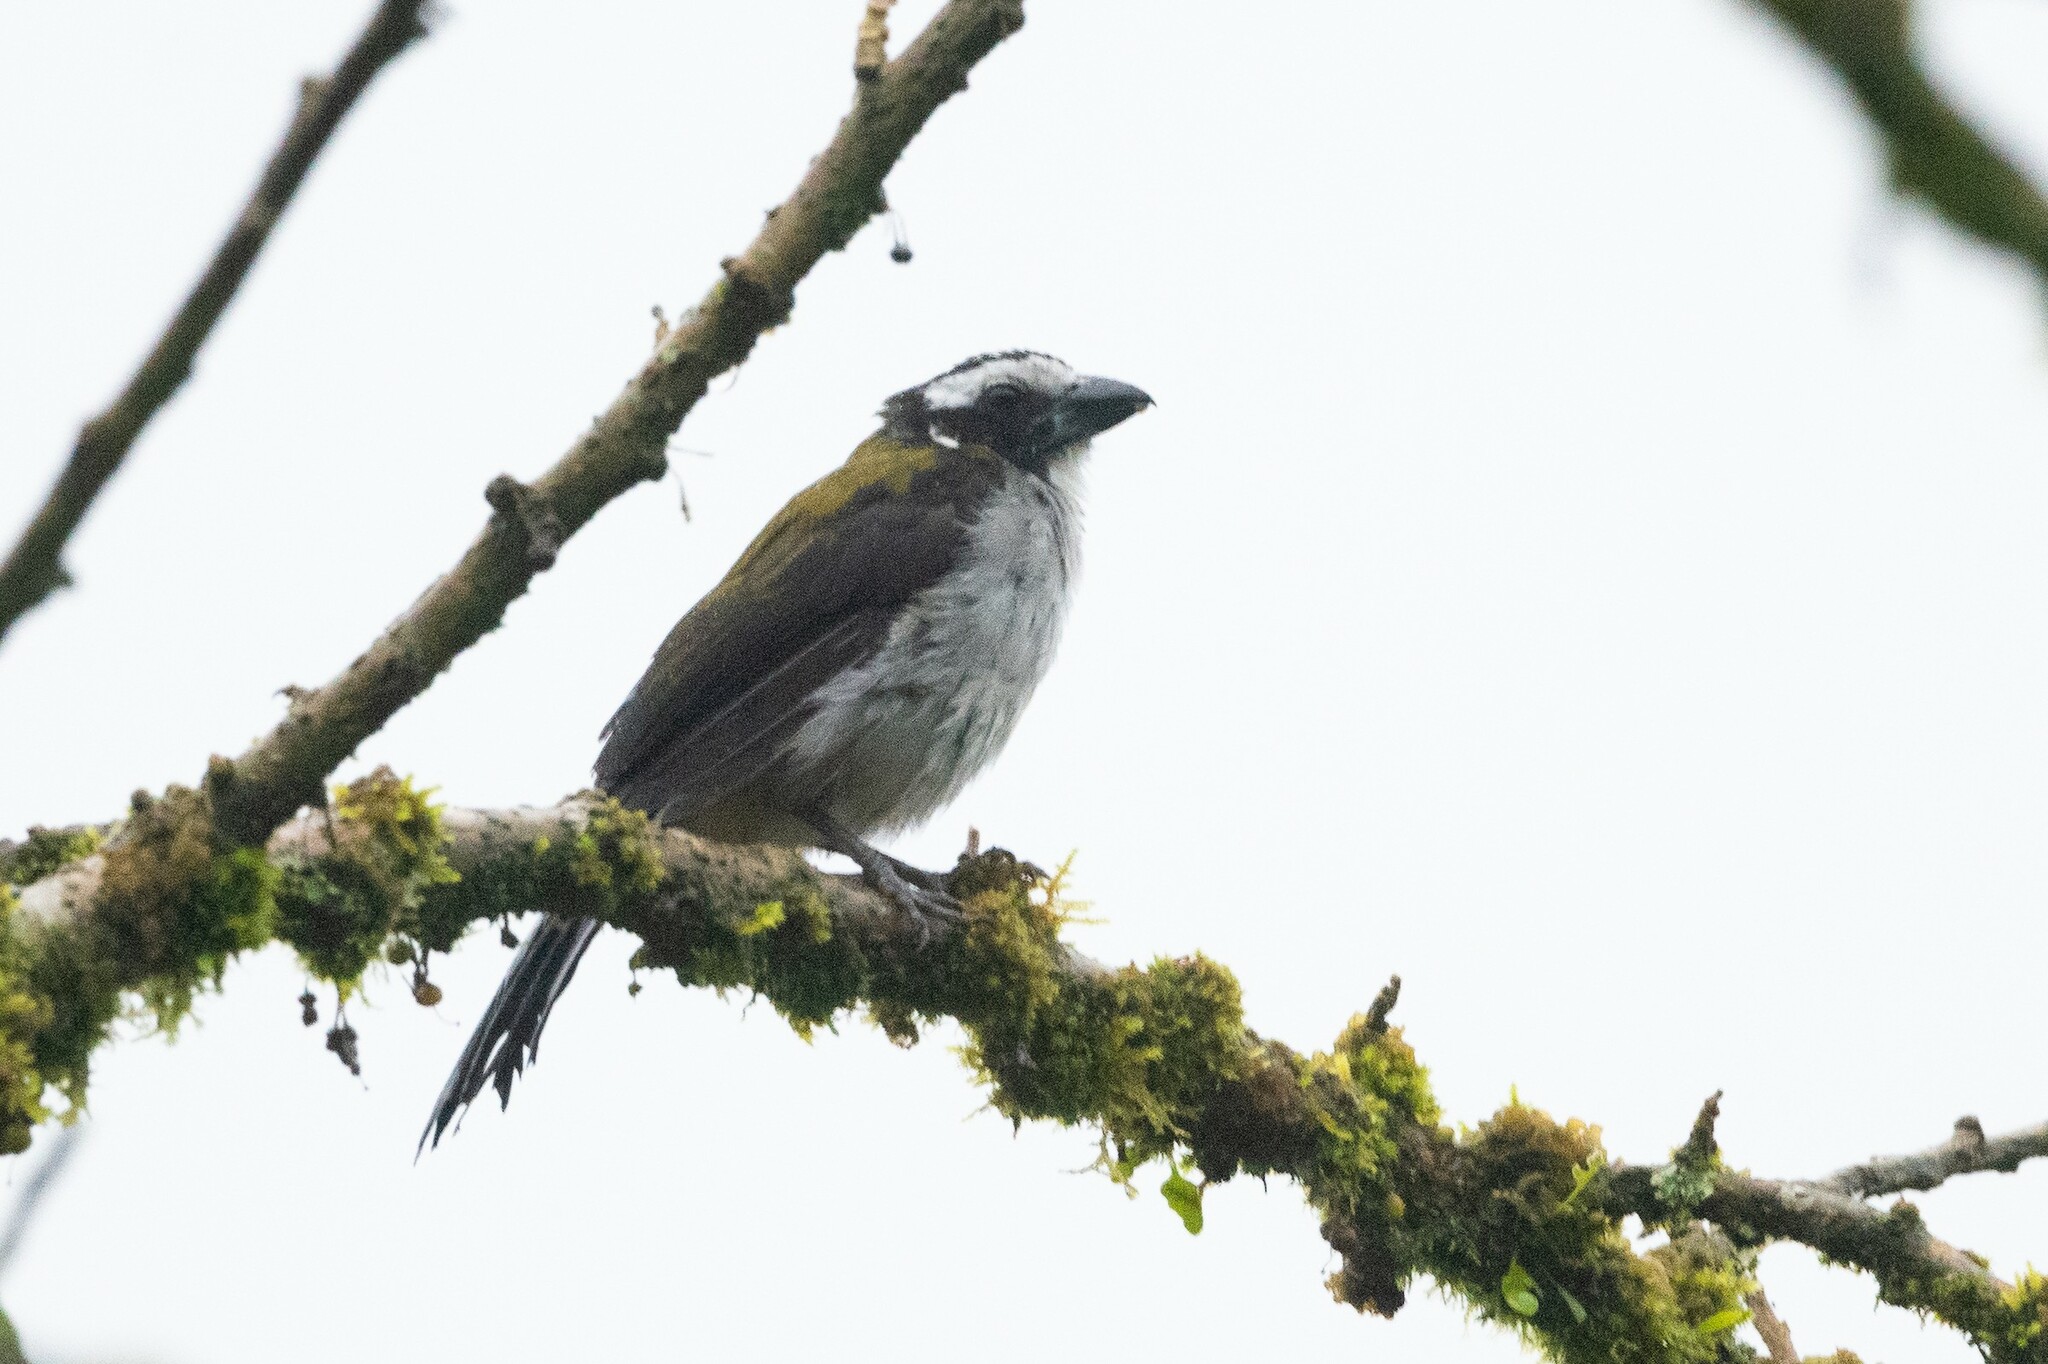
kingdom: Animalia
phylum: Chordata
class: Aves
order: Passeriformes
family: Thraupidae
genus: Saltator
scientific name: Saltator atripennis
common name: Black-winged saltator
